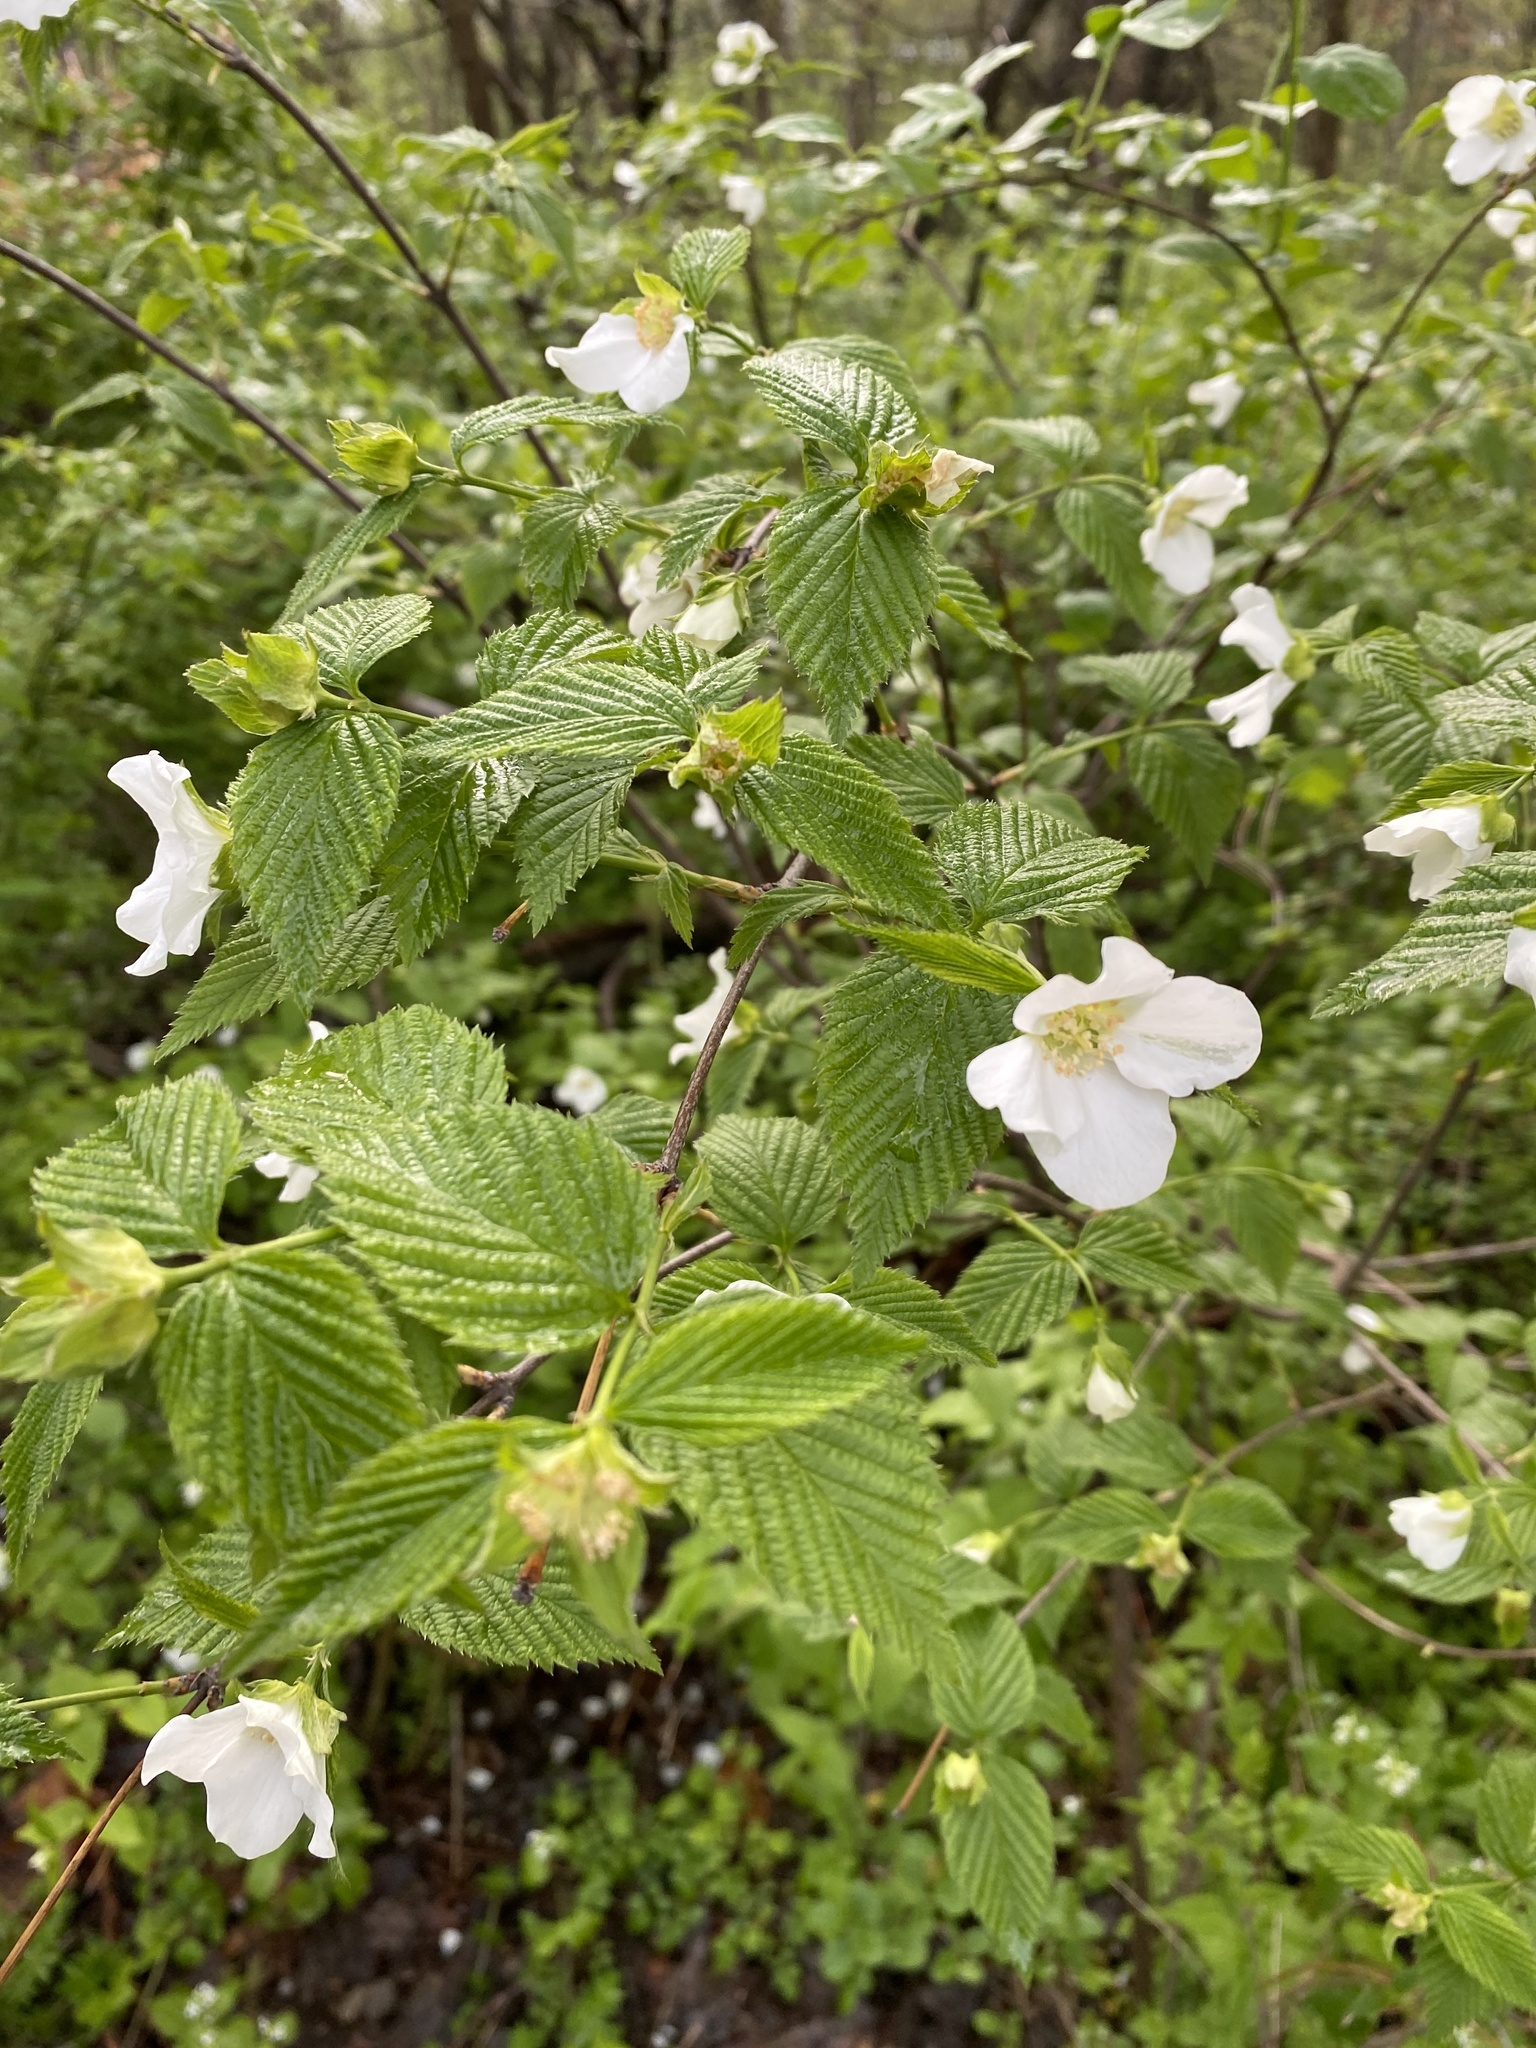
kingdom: Plantae
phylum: Tracheophyta
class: Magnoliopsida
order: Rosales
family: Rosaceae
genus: Rhodotypos
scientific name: Rhodotypos scandens
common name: Jetbead
